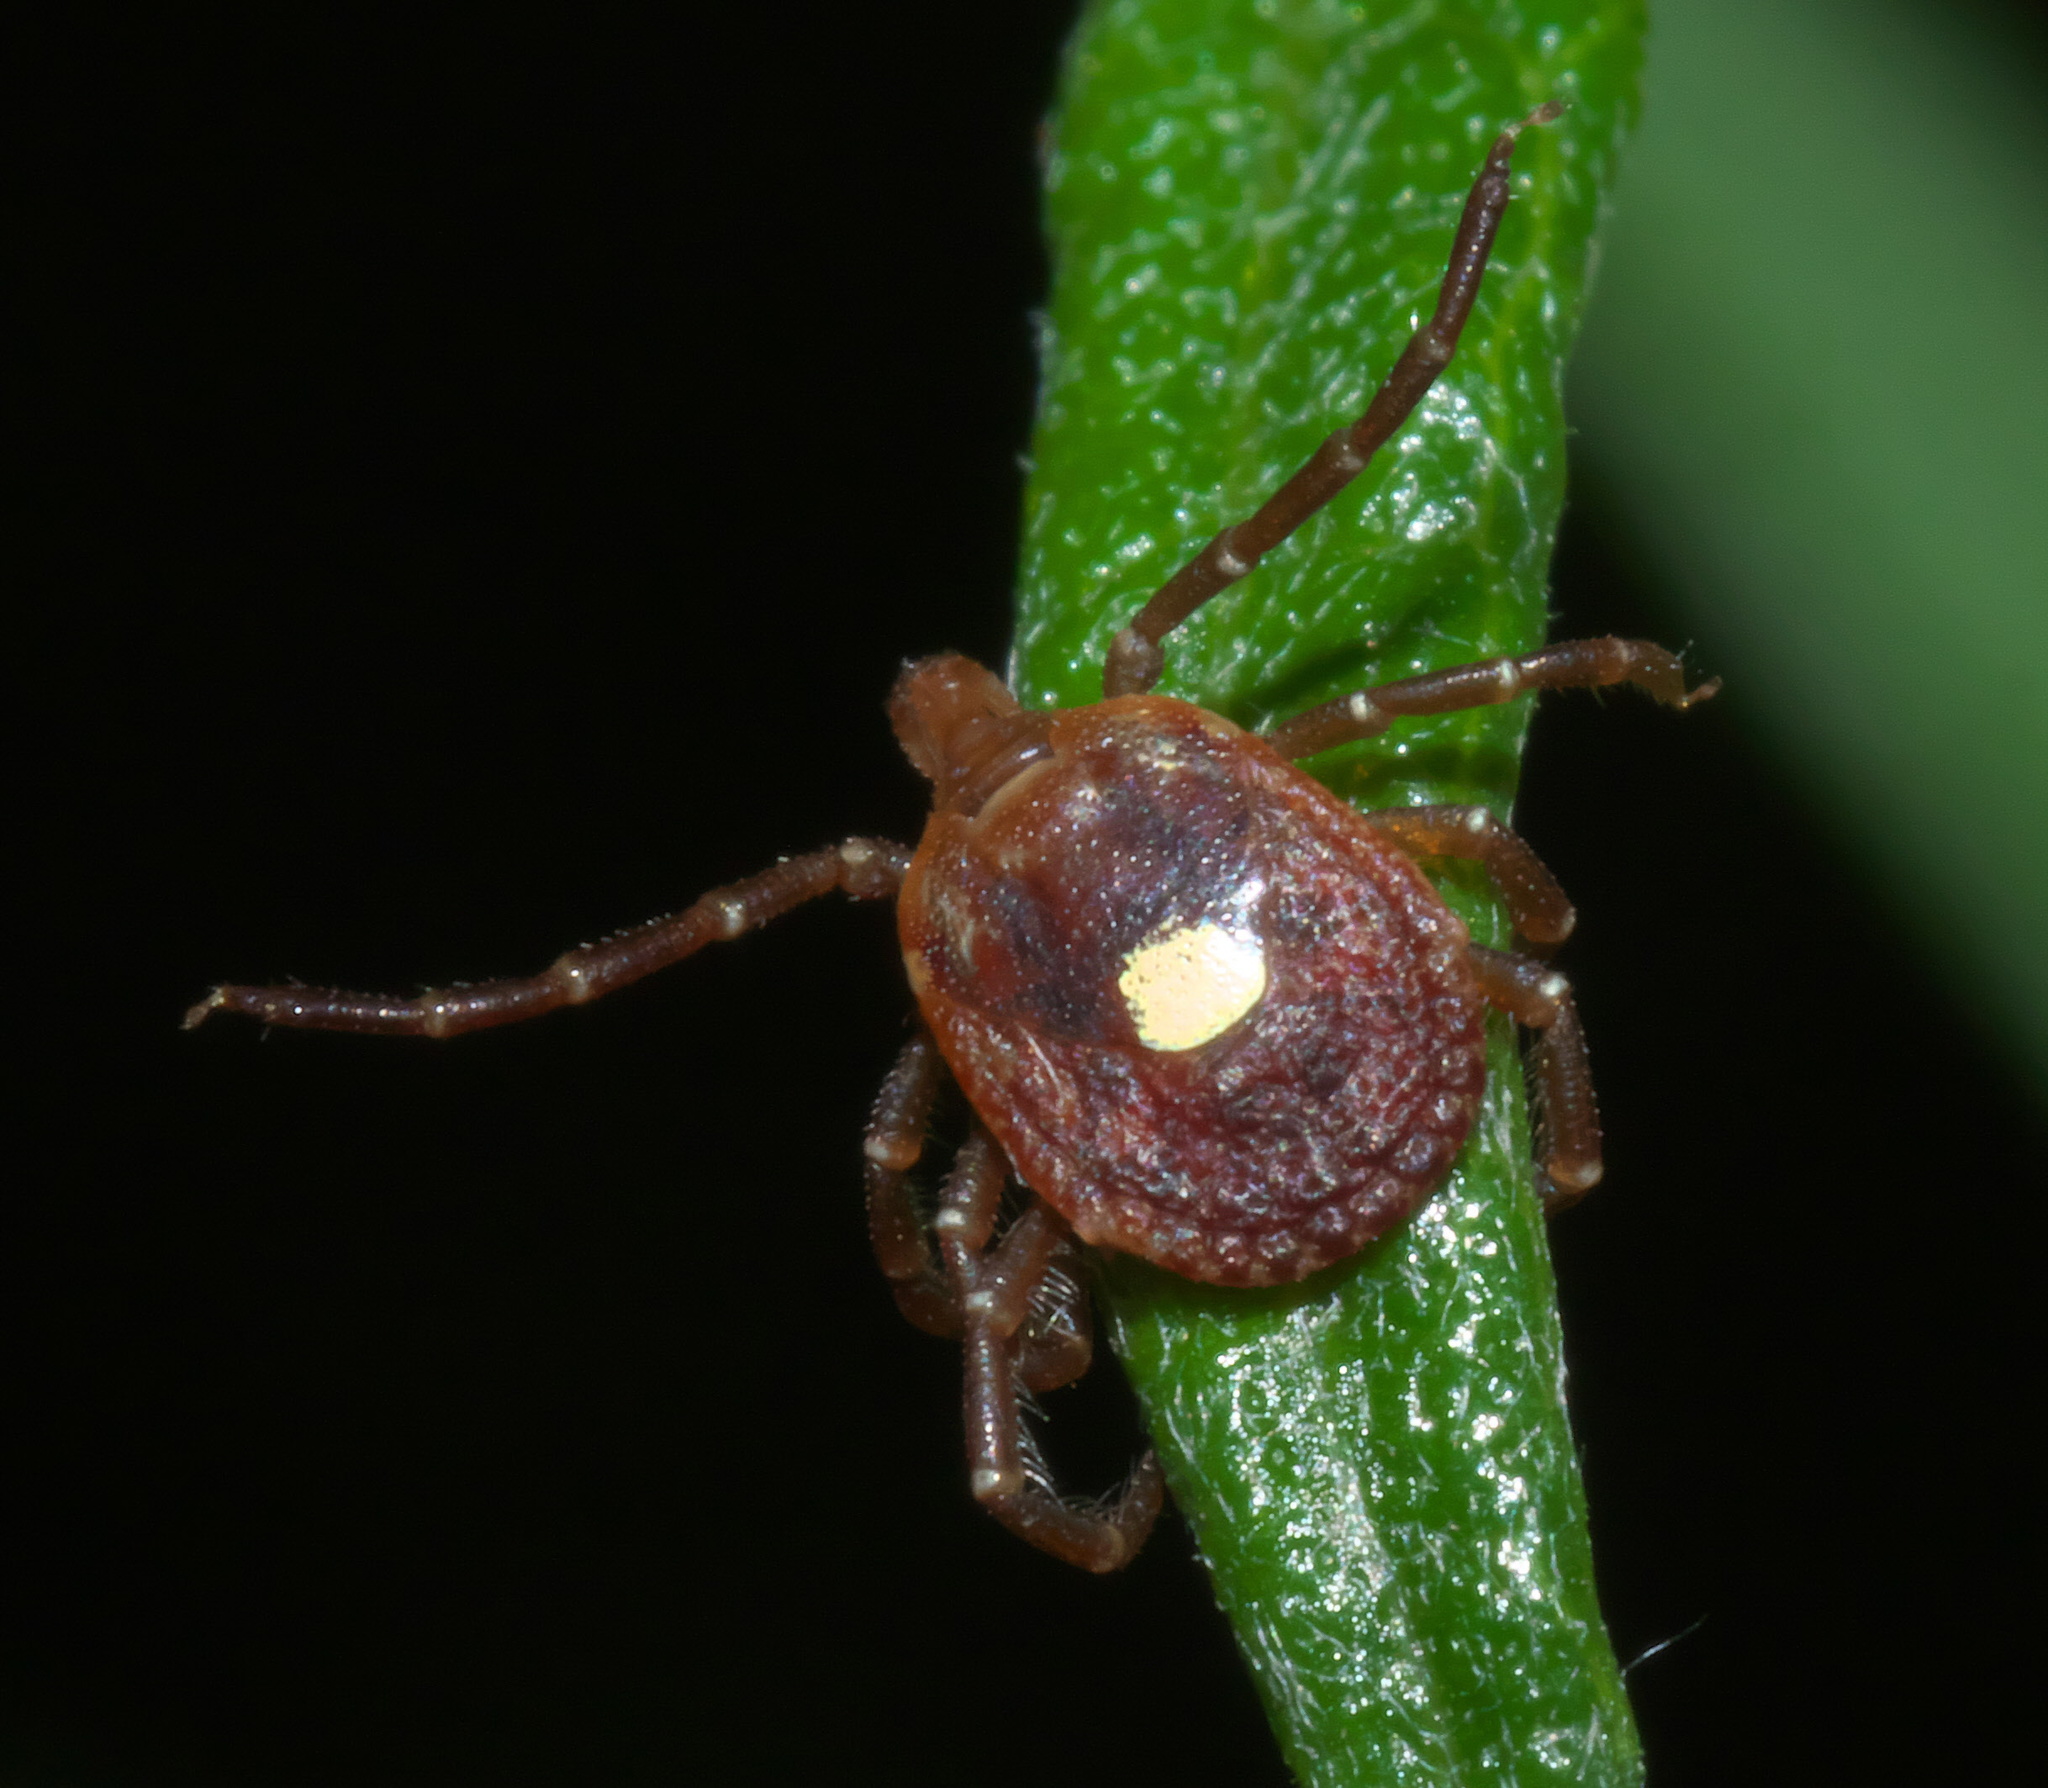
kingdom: Animalia
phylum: Arthropoda
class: Arachnida
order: Ixodida
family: Ixodidae
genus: Amblyomma
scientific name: Amblyomma americanum
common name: Lone star tick
